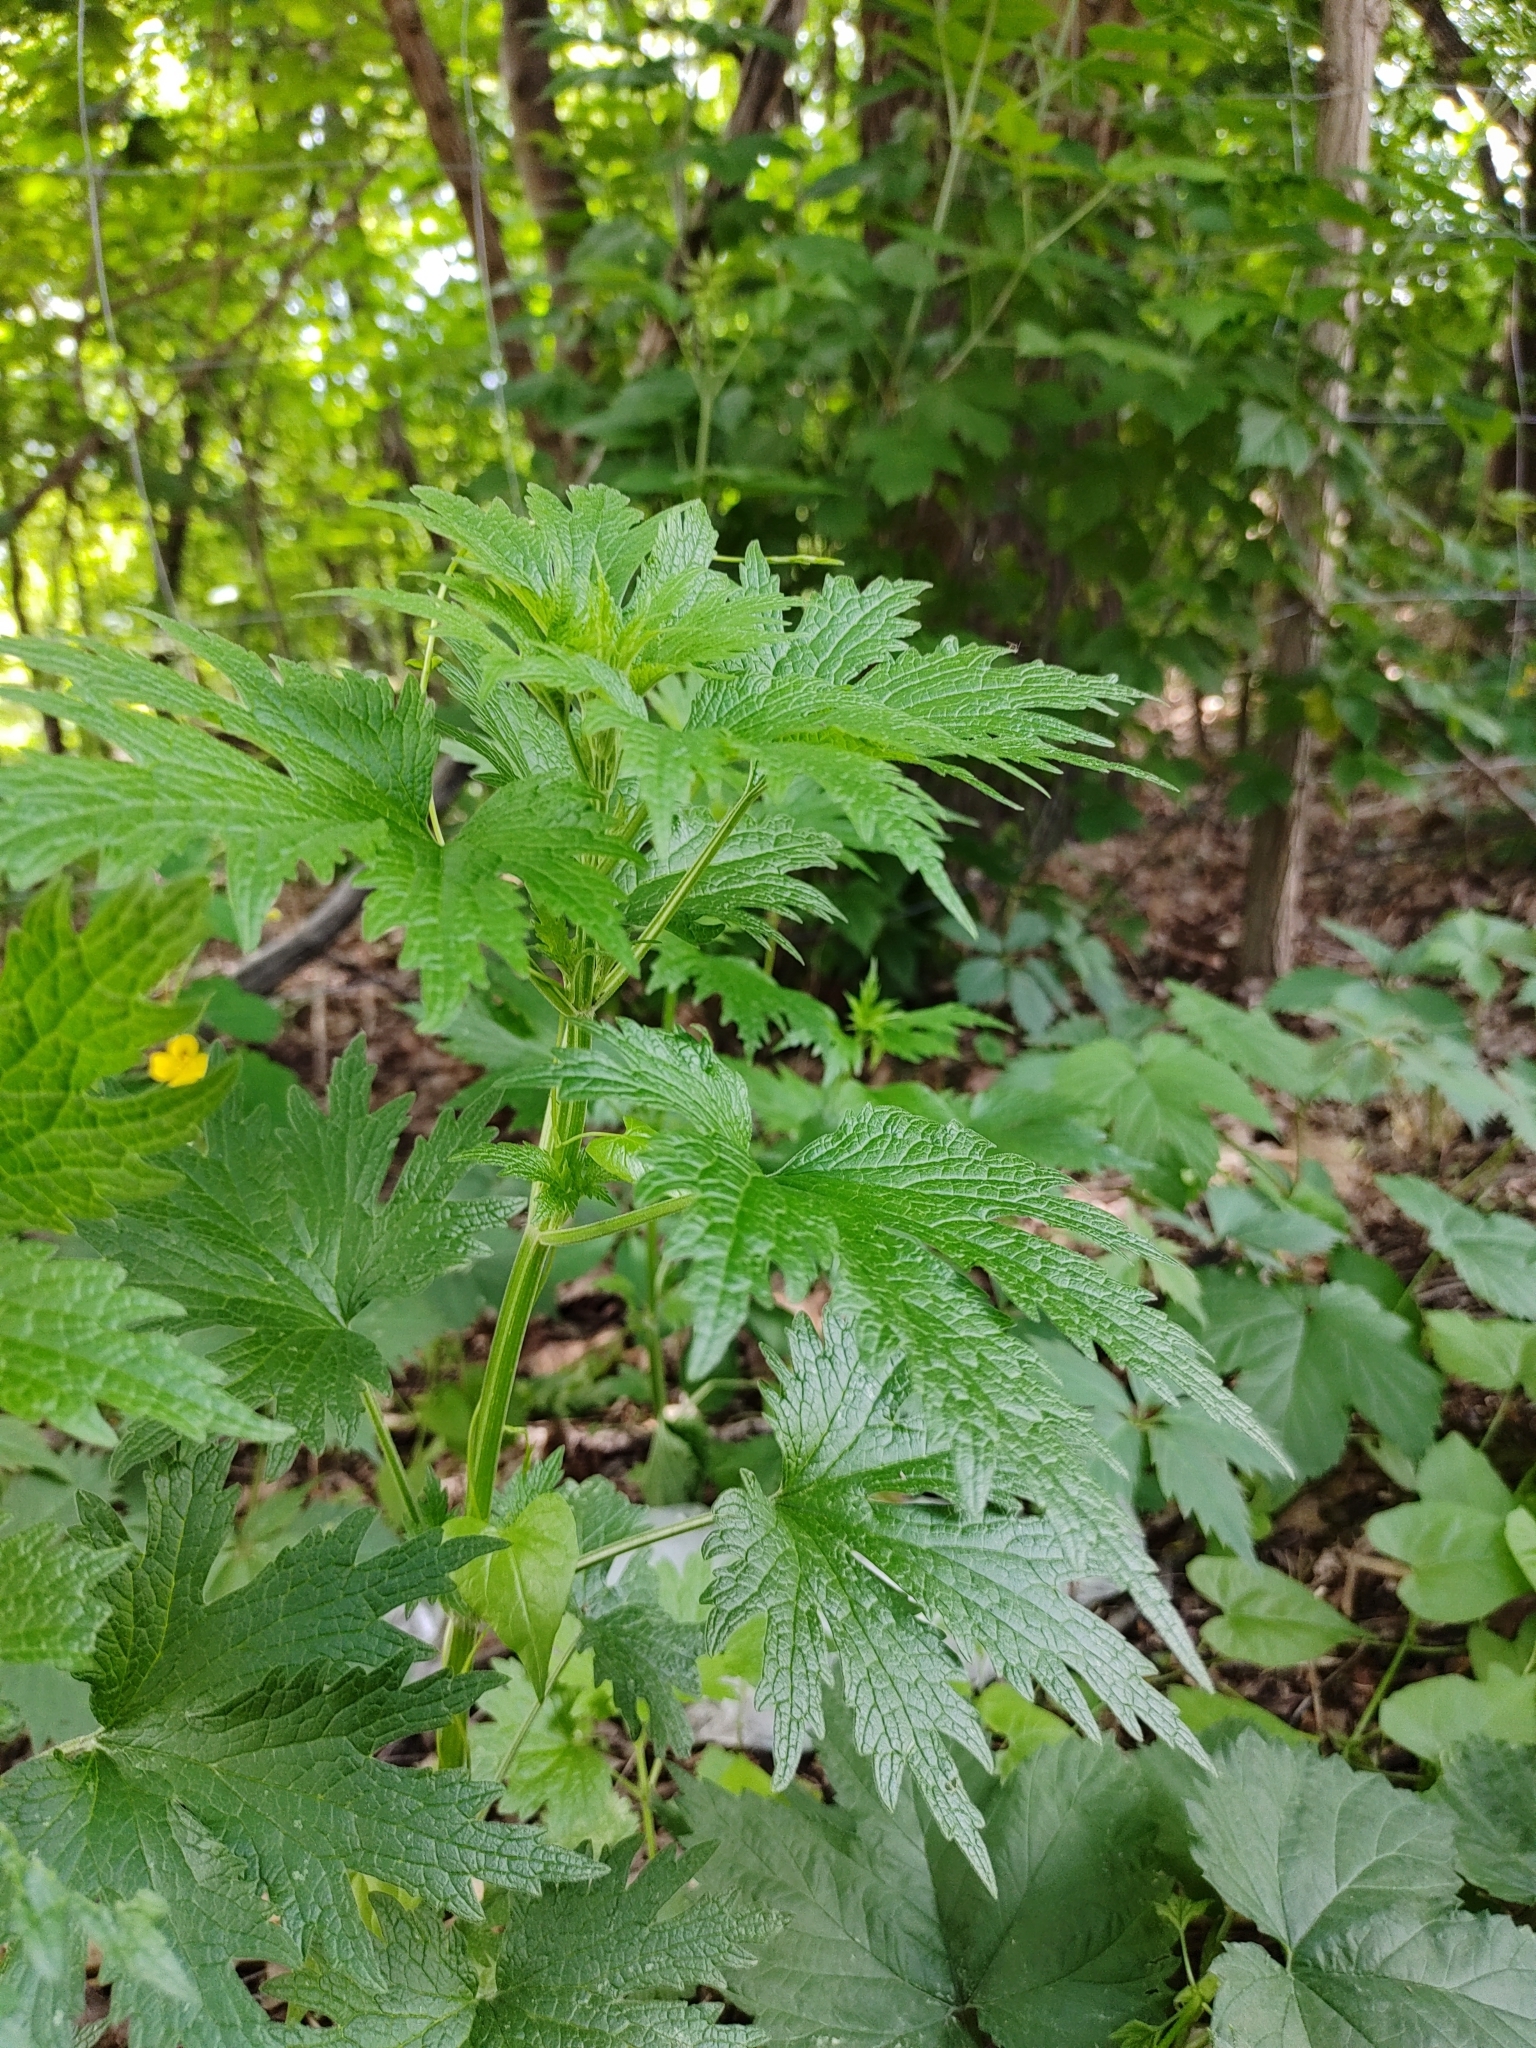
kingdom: Plantae
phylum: Tracheophyta
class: Magnoliopsida
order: Lamiales
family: Lamiaceae
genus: Leonurus
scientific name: Leonurus cardiaca
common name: Motherwort
